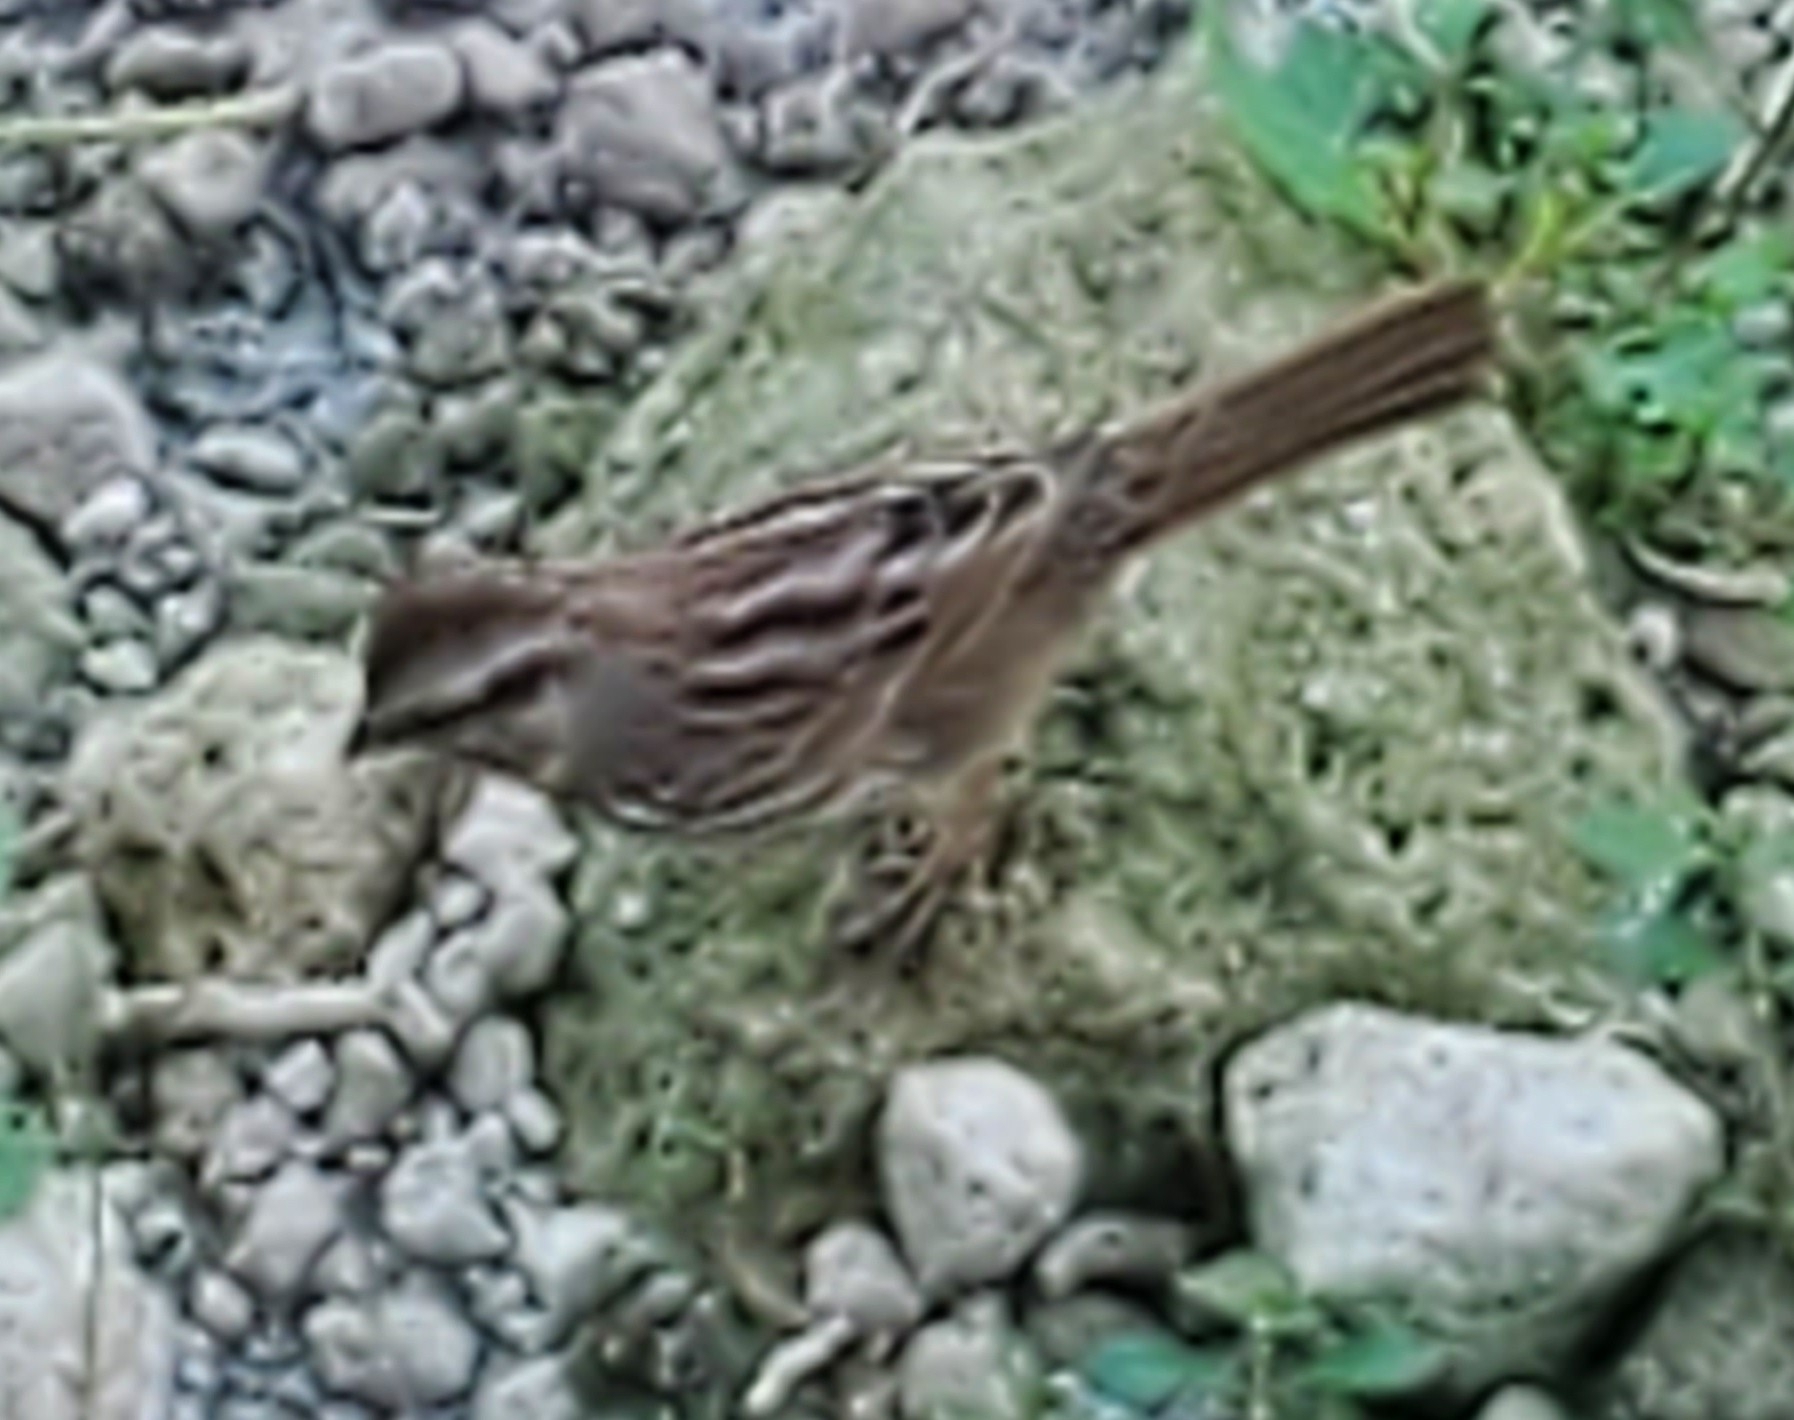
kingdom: Animalia
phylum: Chordata
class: Aves
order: Passeriformes
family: Passerellidae
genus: Melospiza
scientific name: Melospiza melodia
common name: Song sparrow
